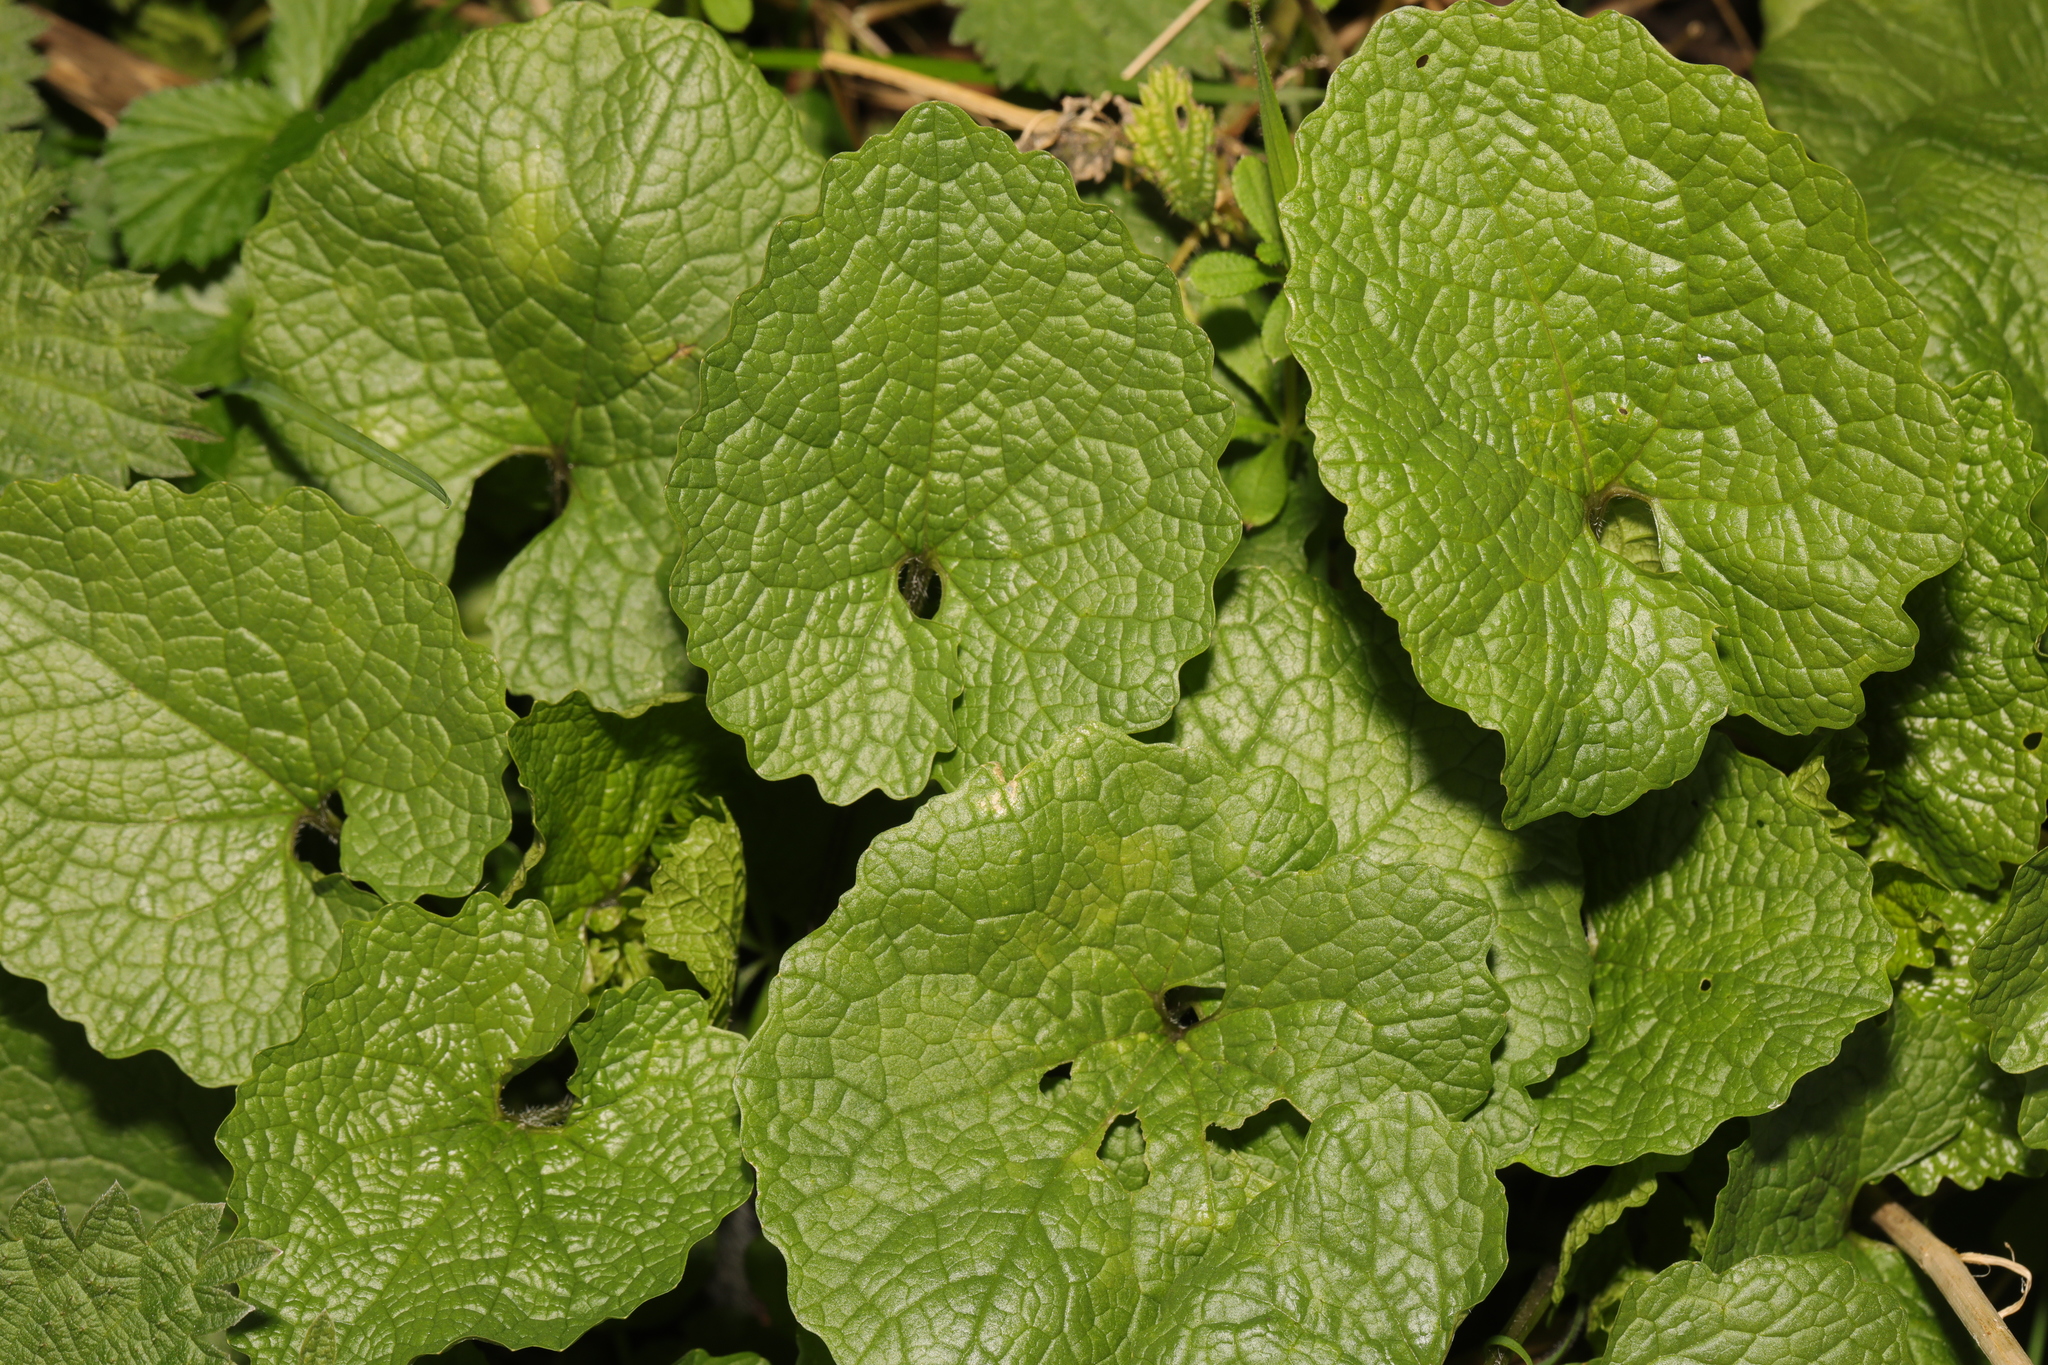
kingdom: Plantae
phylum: Tracheophyta
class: Magnoliopsida
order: Brassicales
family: Brassicaceae
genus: Alliaria
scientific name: Alliaria petiolata
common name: Garlic mustard
